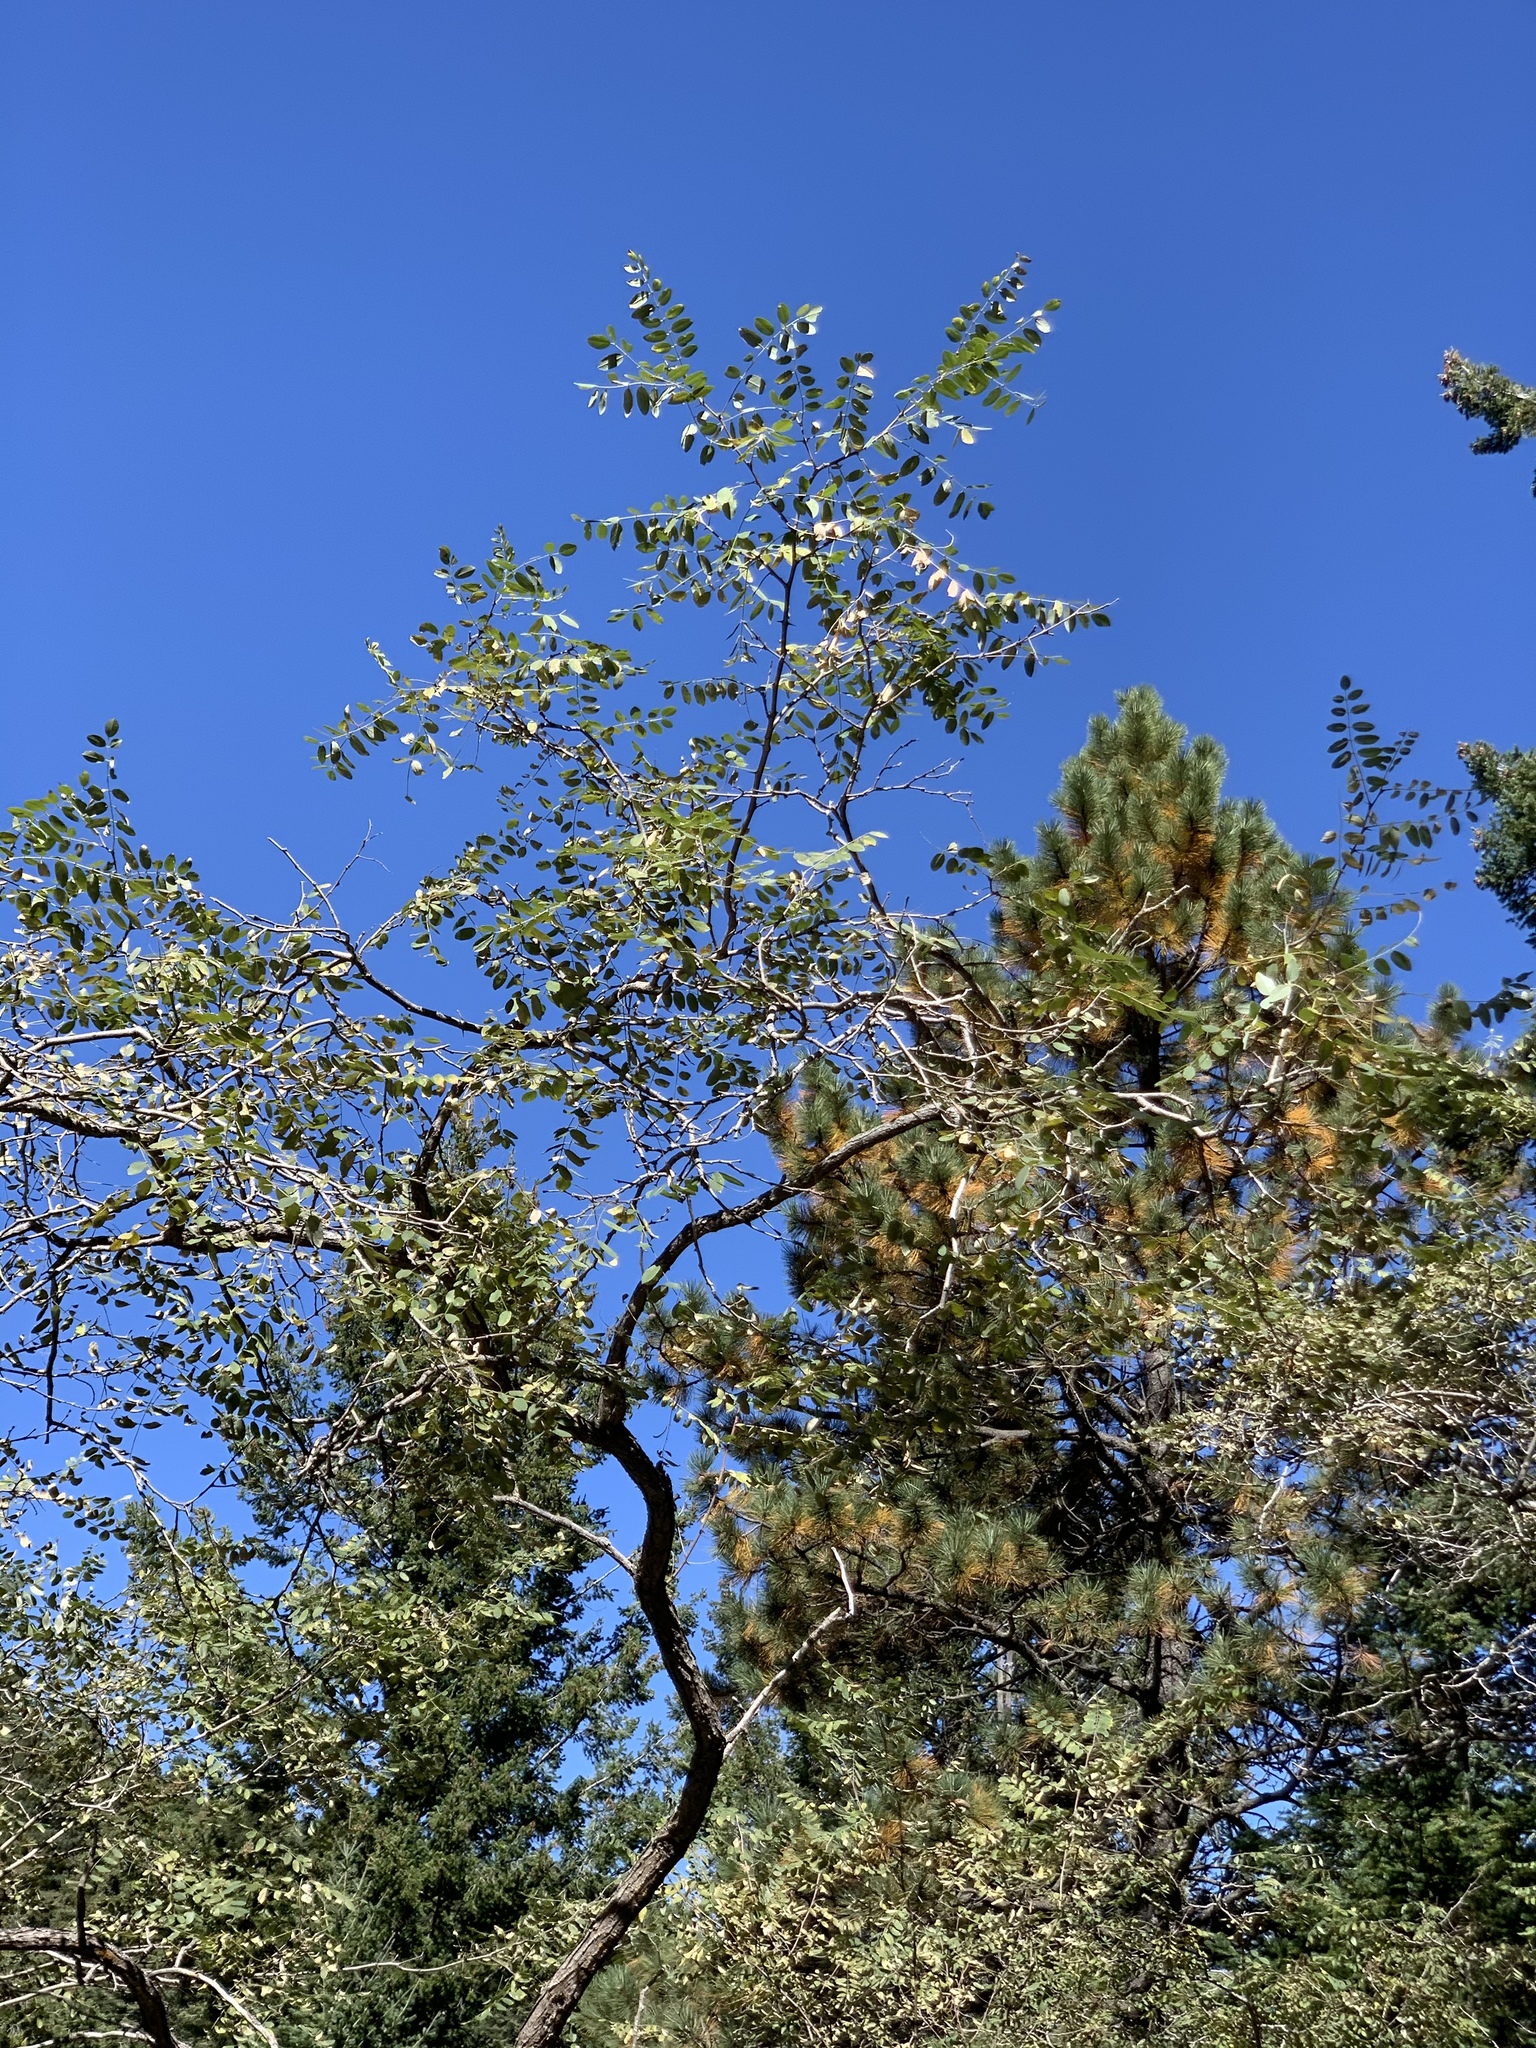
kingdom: Plantae
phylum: Tracheophyta
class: Magnoliopsida
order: Fabales
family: Fabaceae
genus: Robinia
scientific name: Robinia neomexicana
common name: New mexico locust
